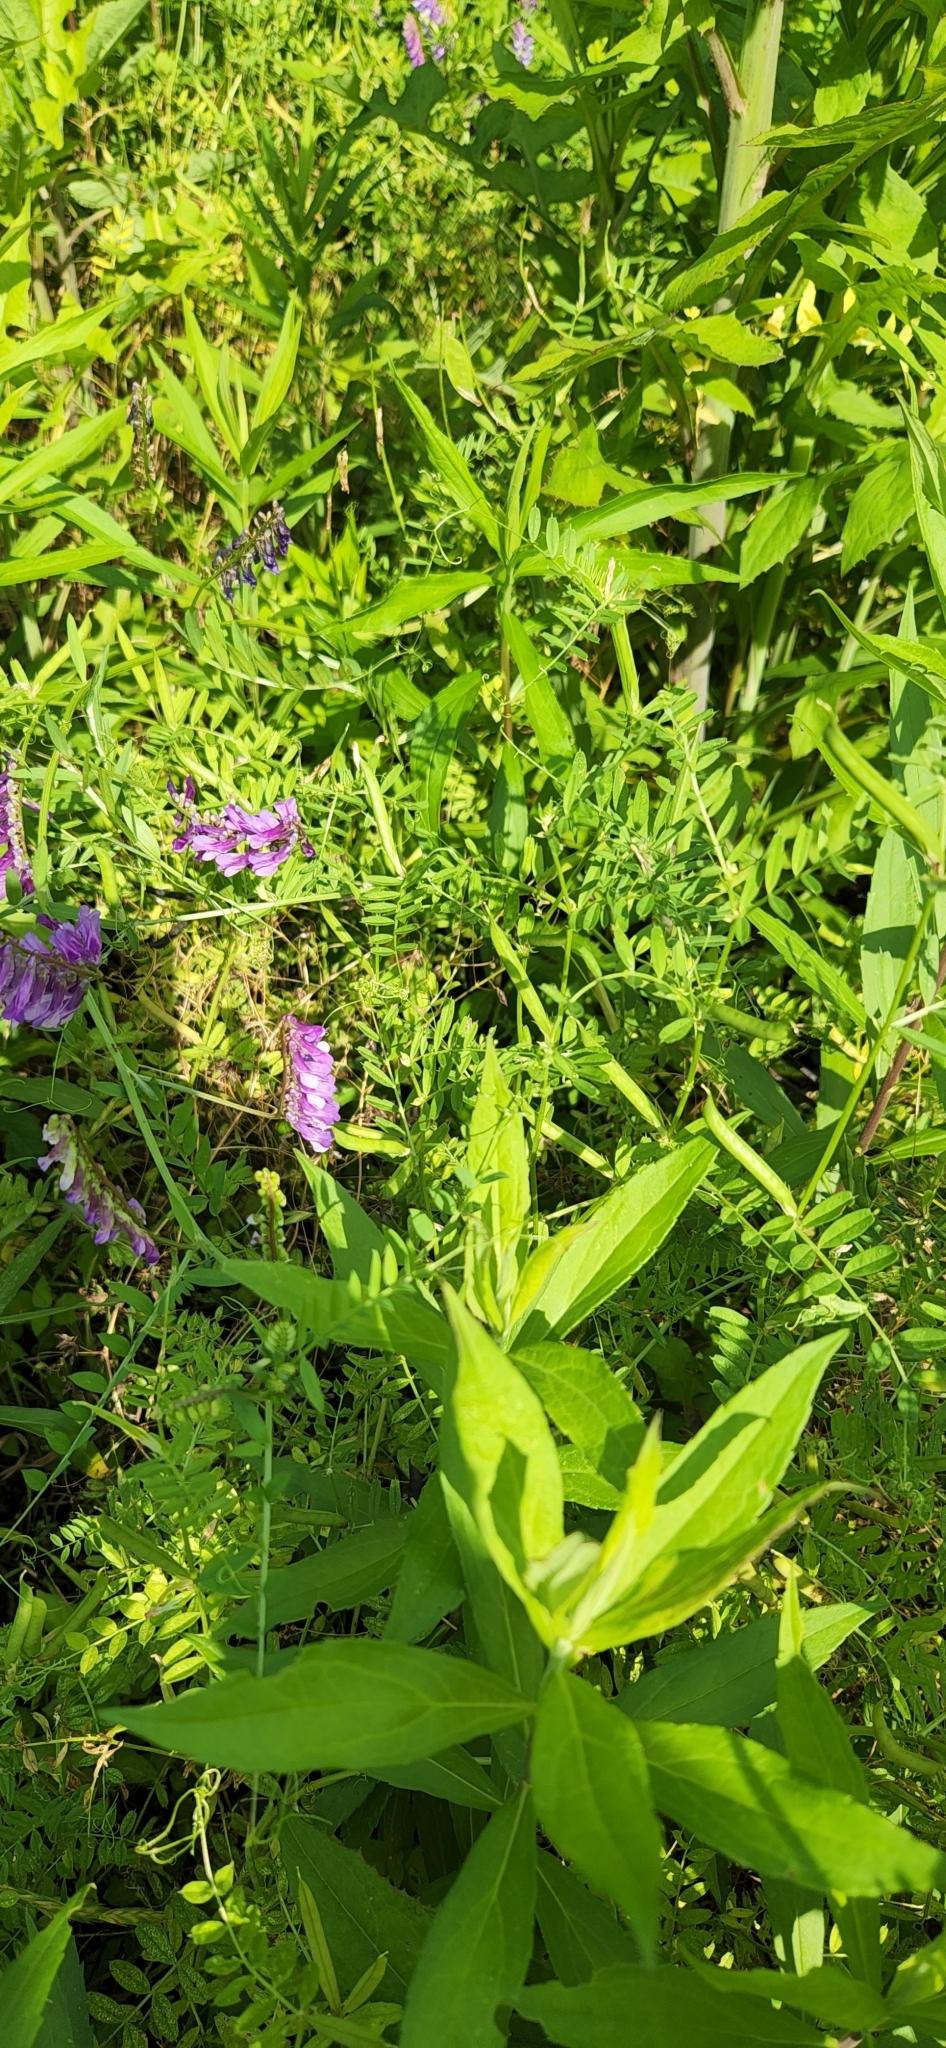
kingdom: Plantae
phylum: Tracheophyta
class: Magnoliopsida
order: Fabales
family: Fabaceae
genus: Vicia
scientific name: Vicia villosa
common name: Fodder vetch
